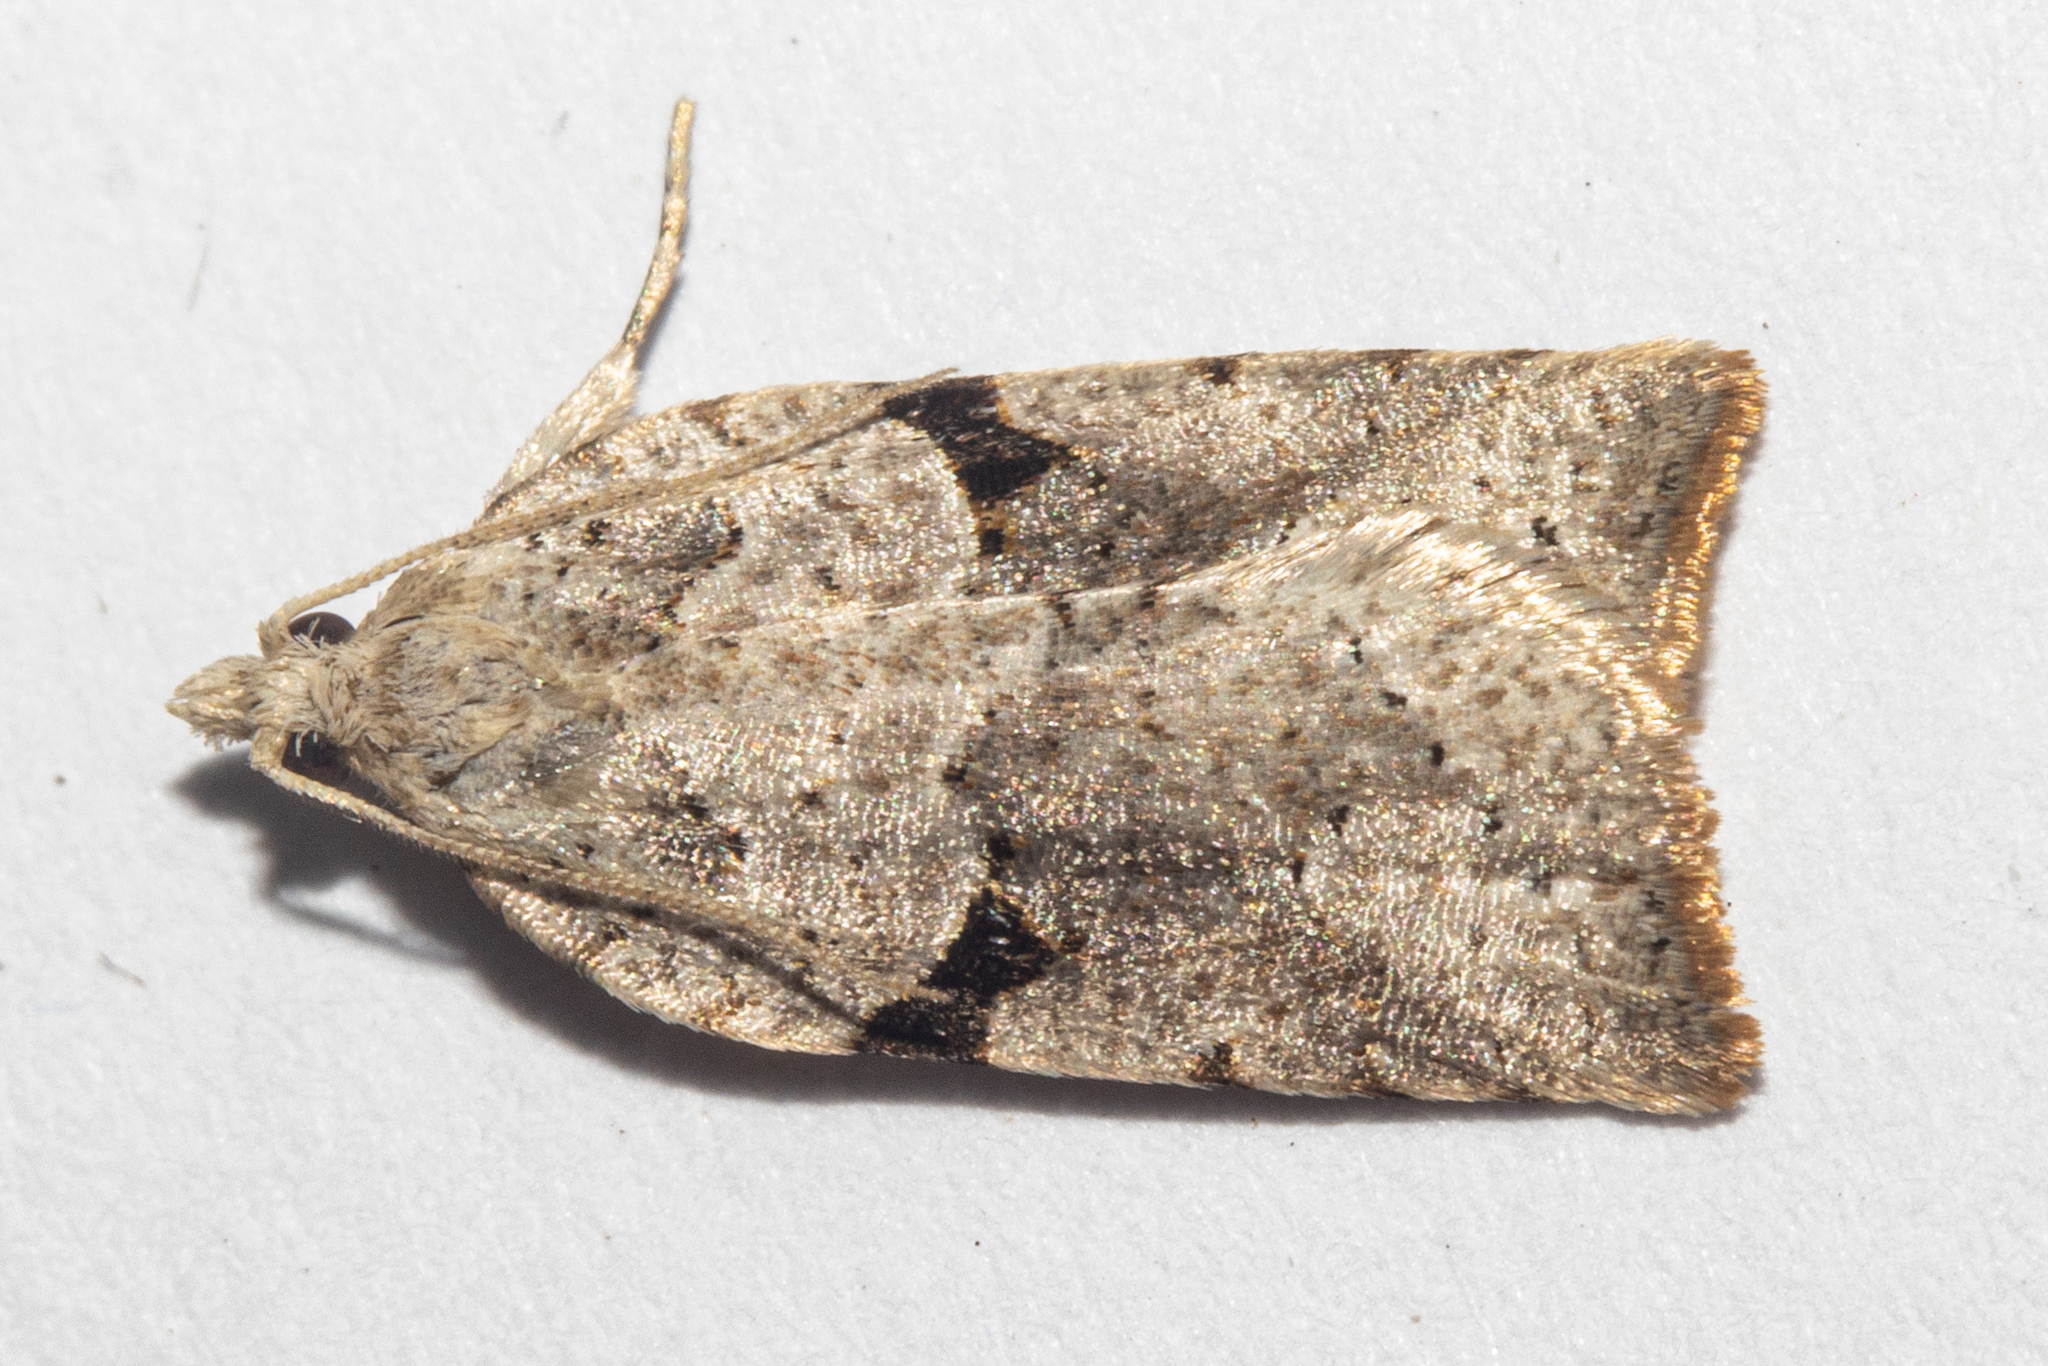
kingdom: Animalia
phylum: Arthropoda
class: Insecta
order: Lepidoptera
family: Tortricidae
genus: Leucotenes
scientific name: Leucotenes coprosmae
